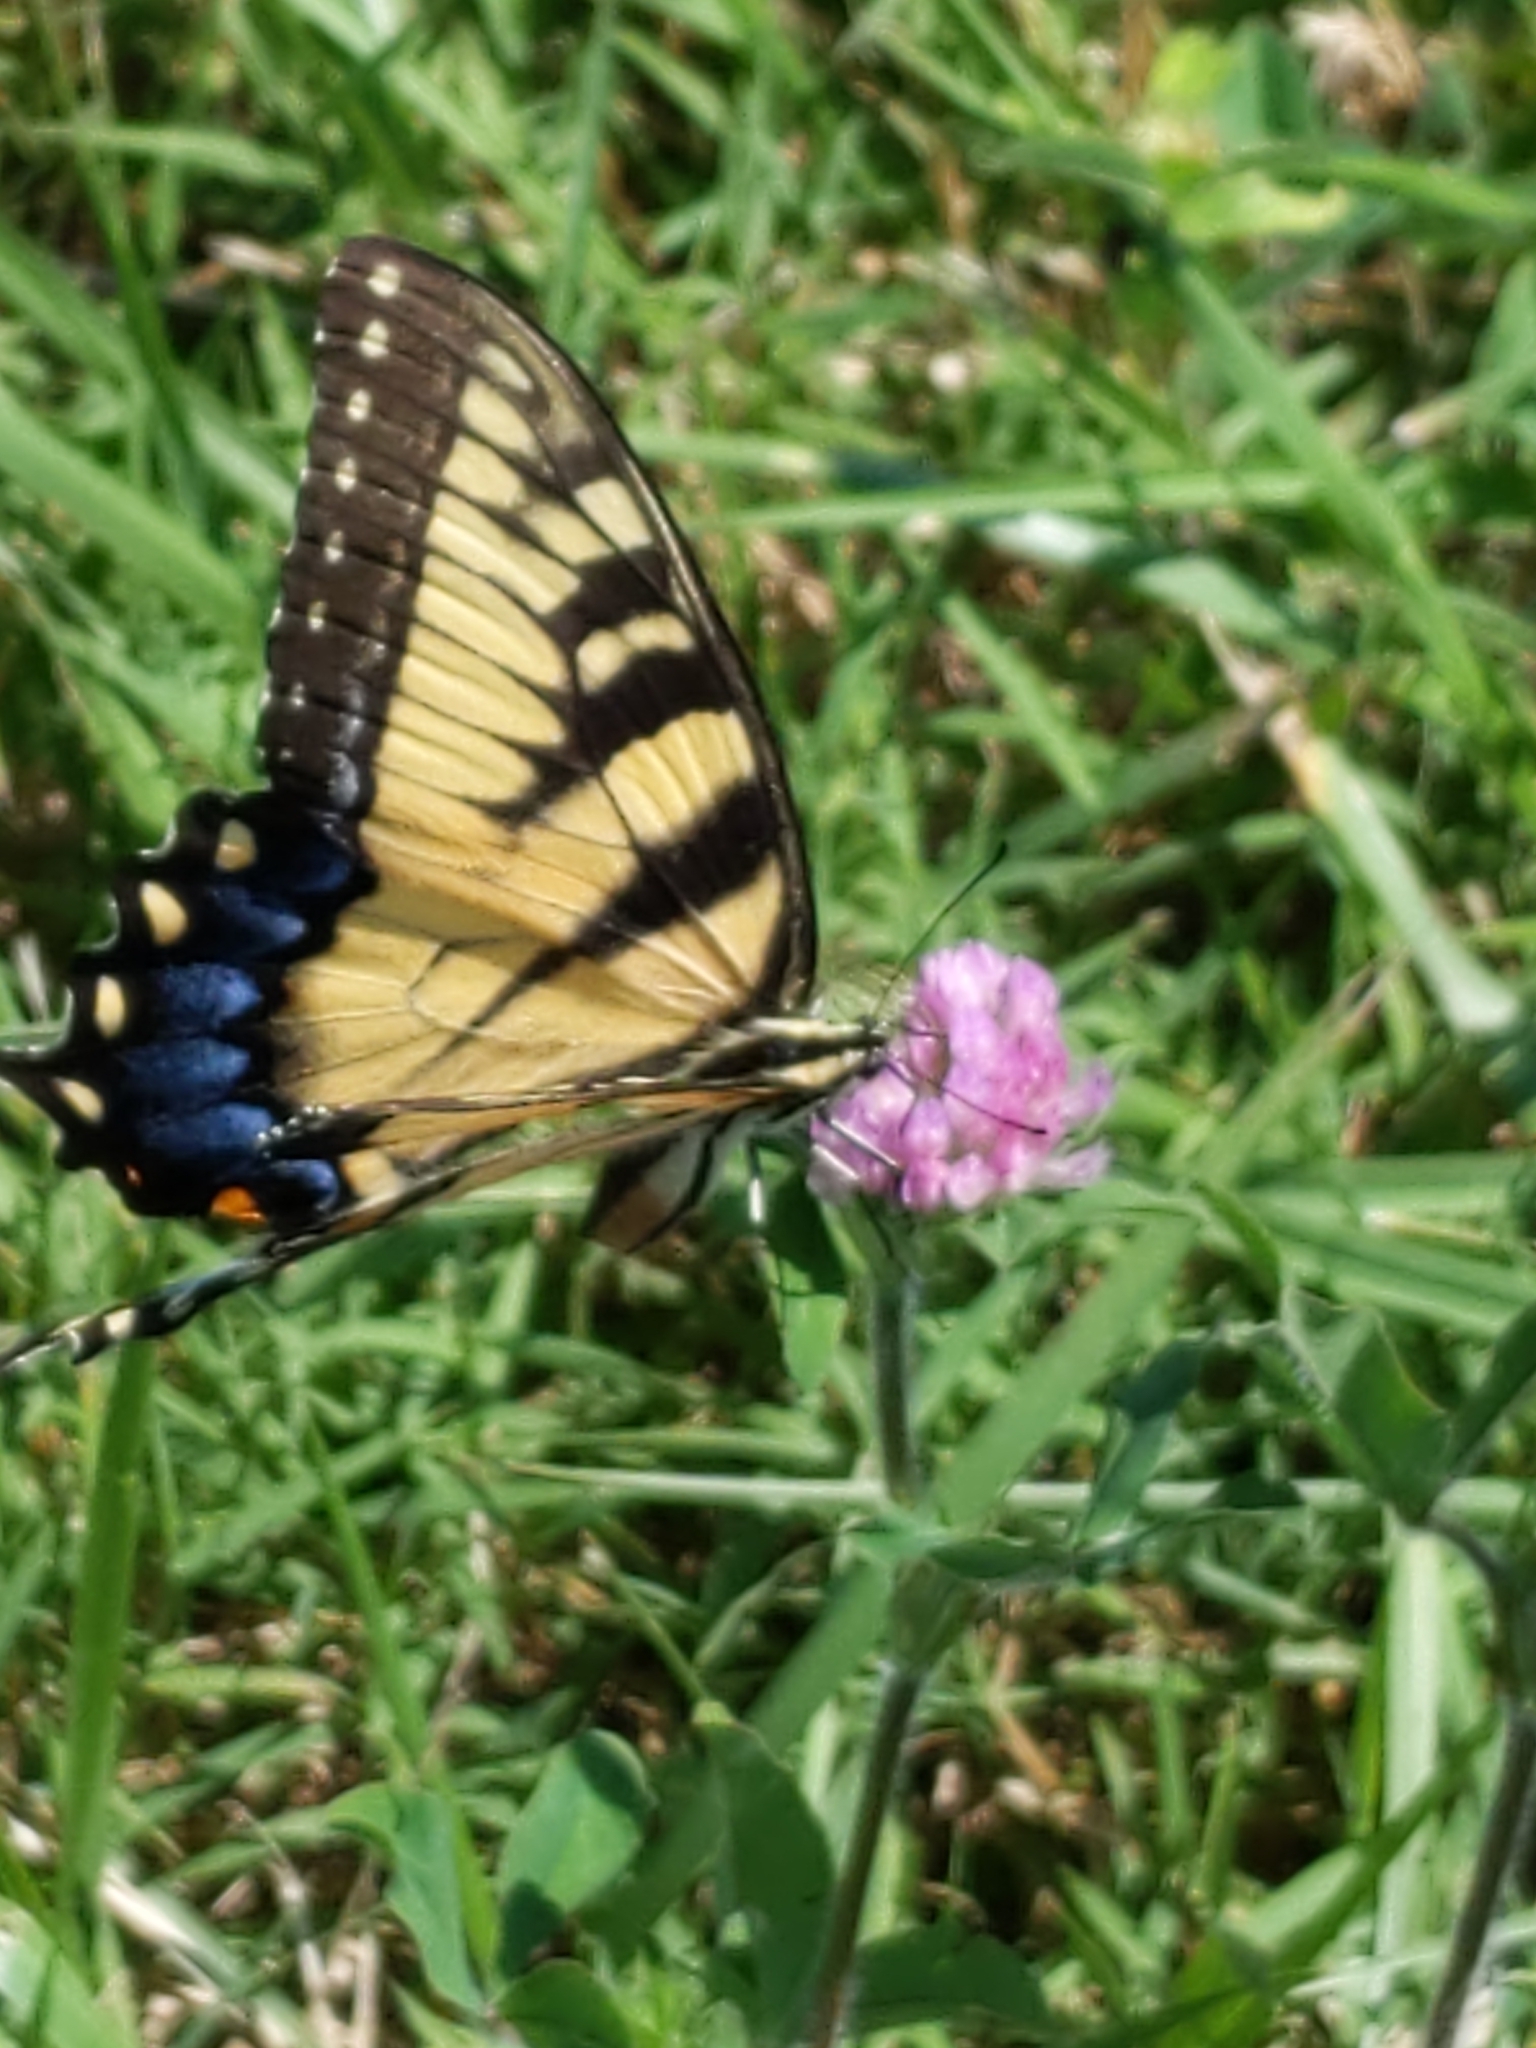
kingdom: Animalia
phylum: Arthropoda
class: Insecta
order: Lepidoptera
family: Papilionidae
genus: Papilio
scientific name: Papilio glaucus
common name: Tiger swallowtail
